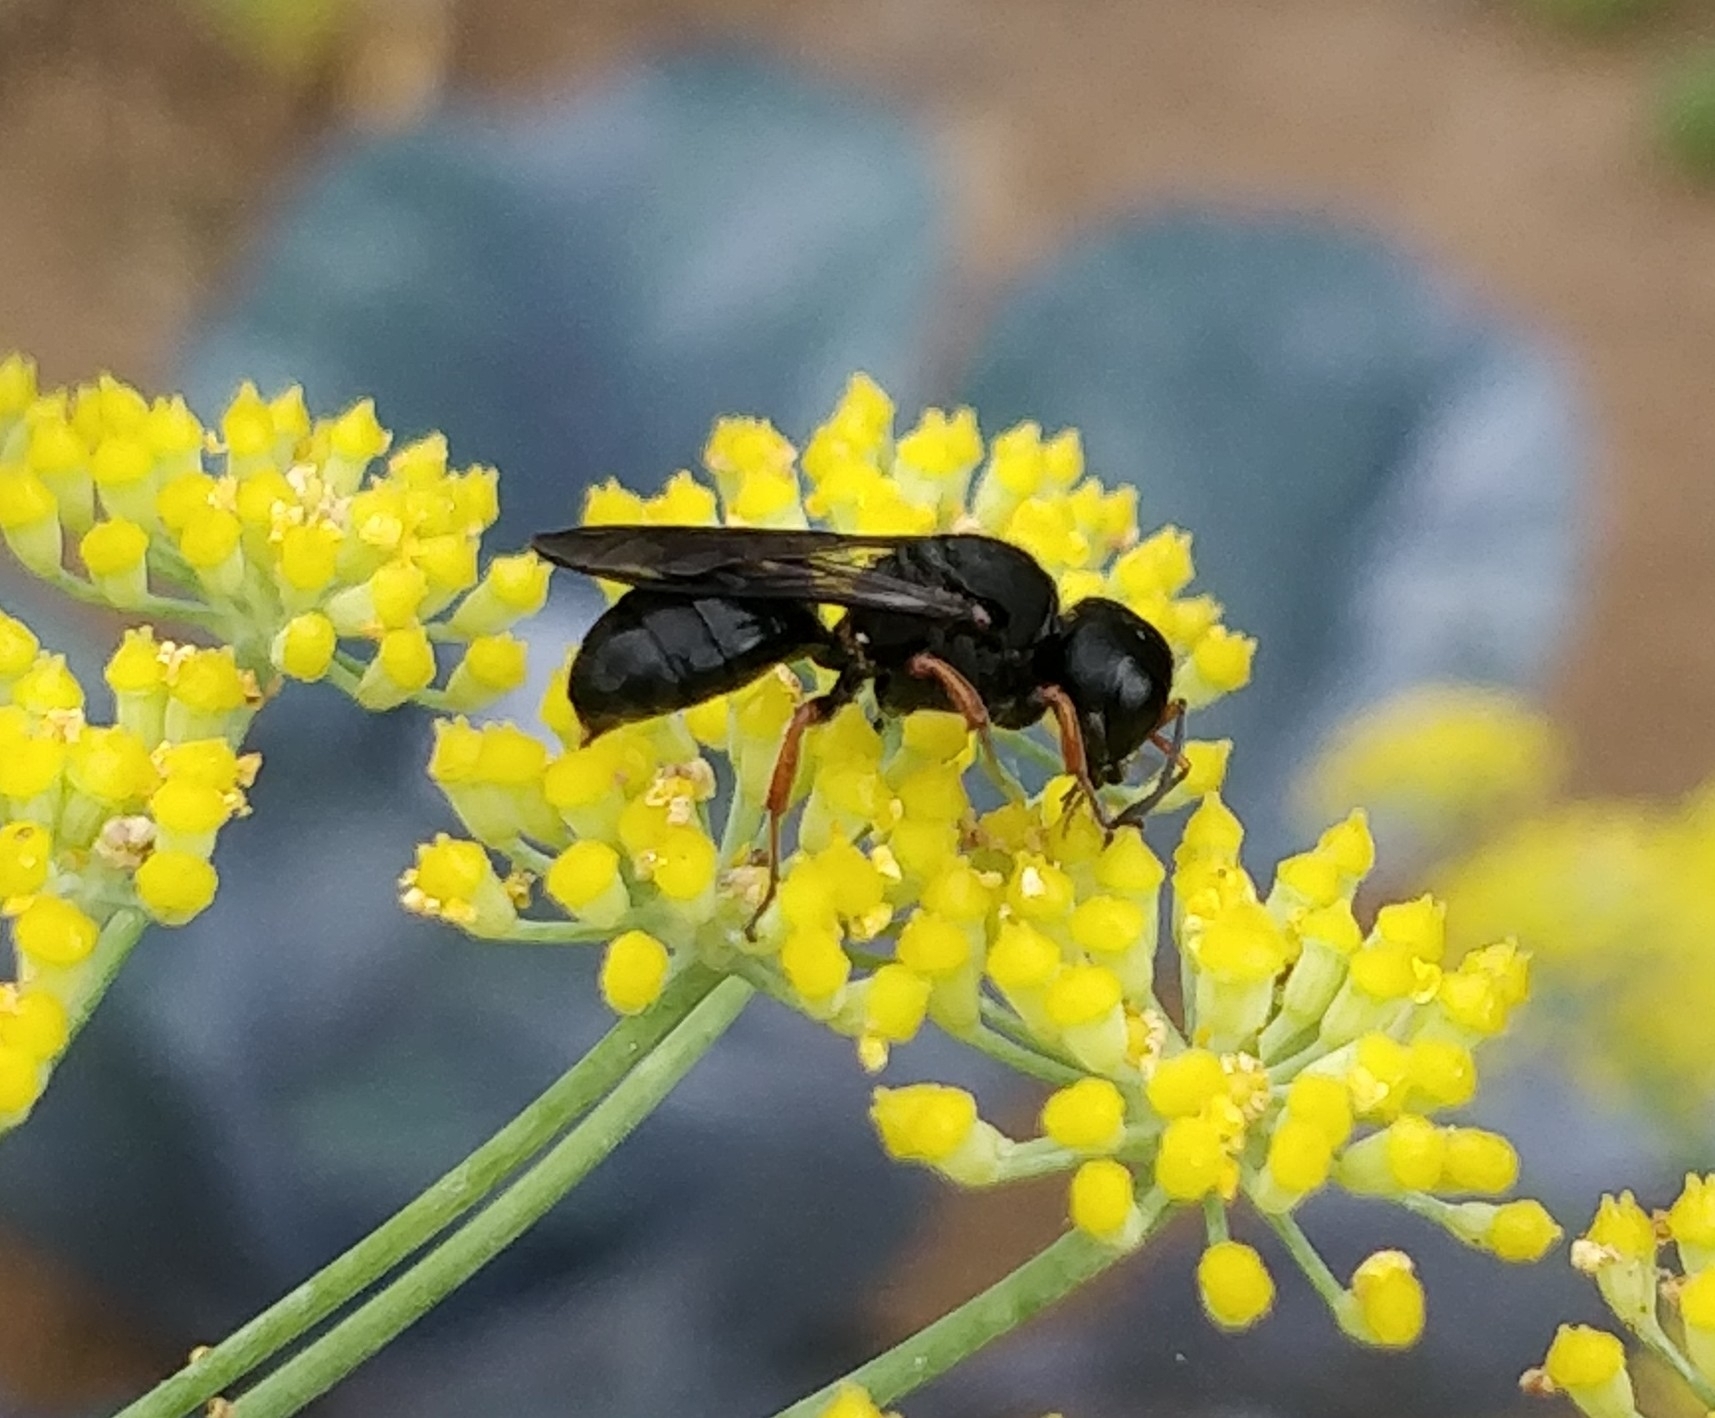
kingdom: Animalia
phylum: Arthropoda
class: Insecta
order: Hymenoptera
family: Crabronidae
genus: Ectemnius
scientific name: Ectemnius continuus
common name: Common ectemnius
